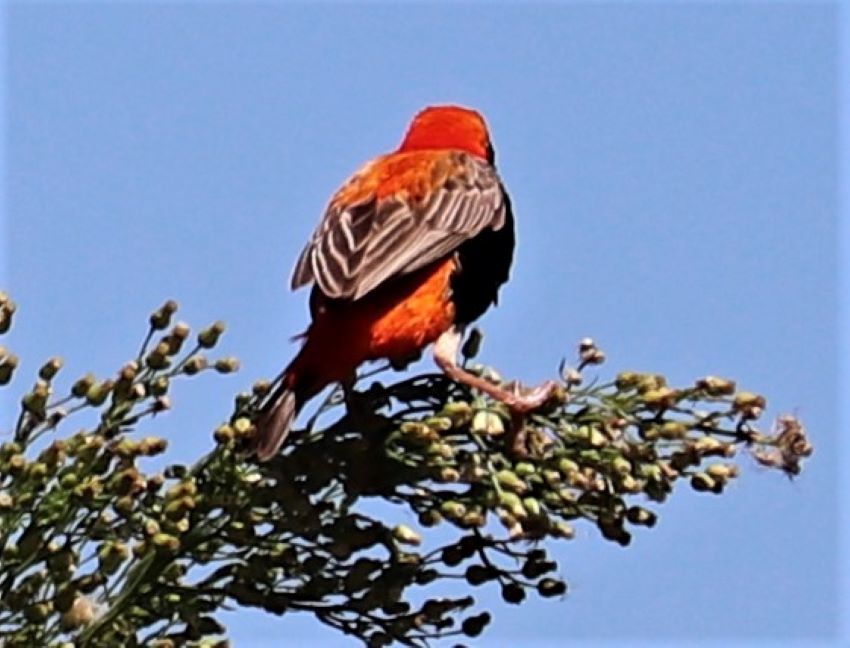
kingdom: Animalia
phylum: Chordata
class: Aves
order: Passeriformes
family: Ploceidae
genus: Euplectes
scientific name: Euplectes orix
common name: Southern red bishop
